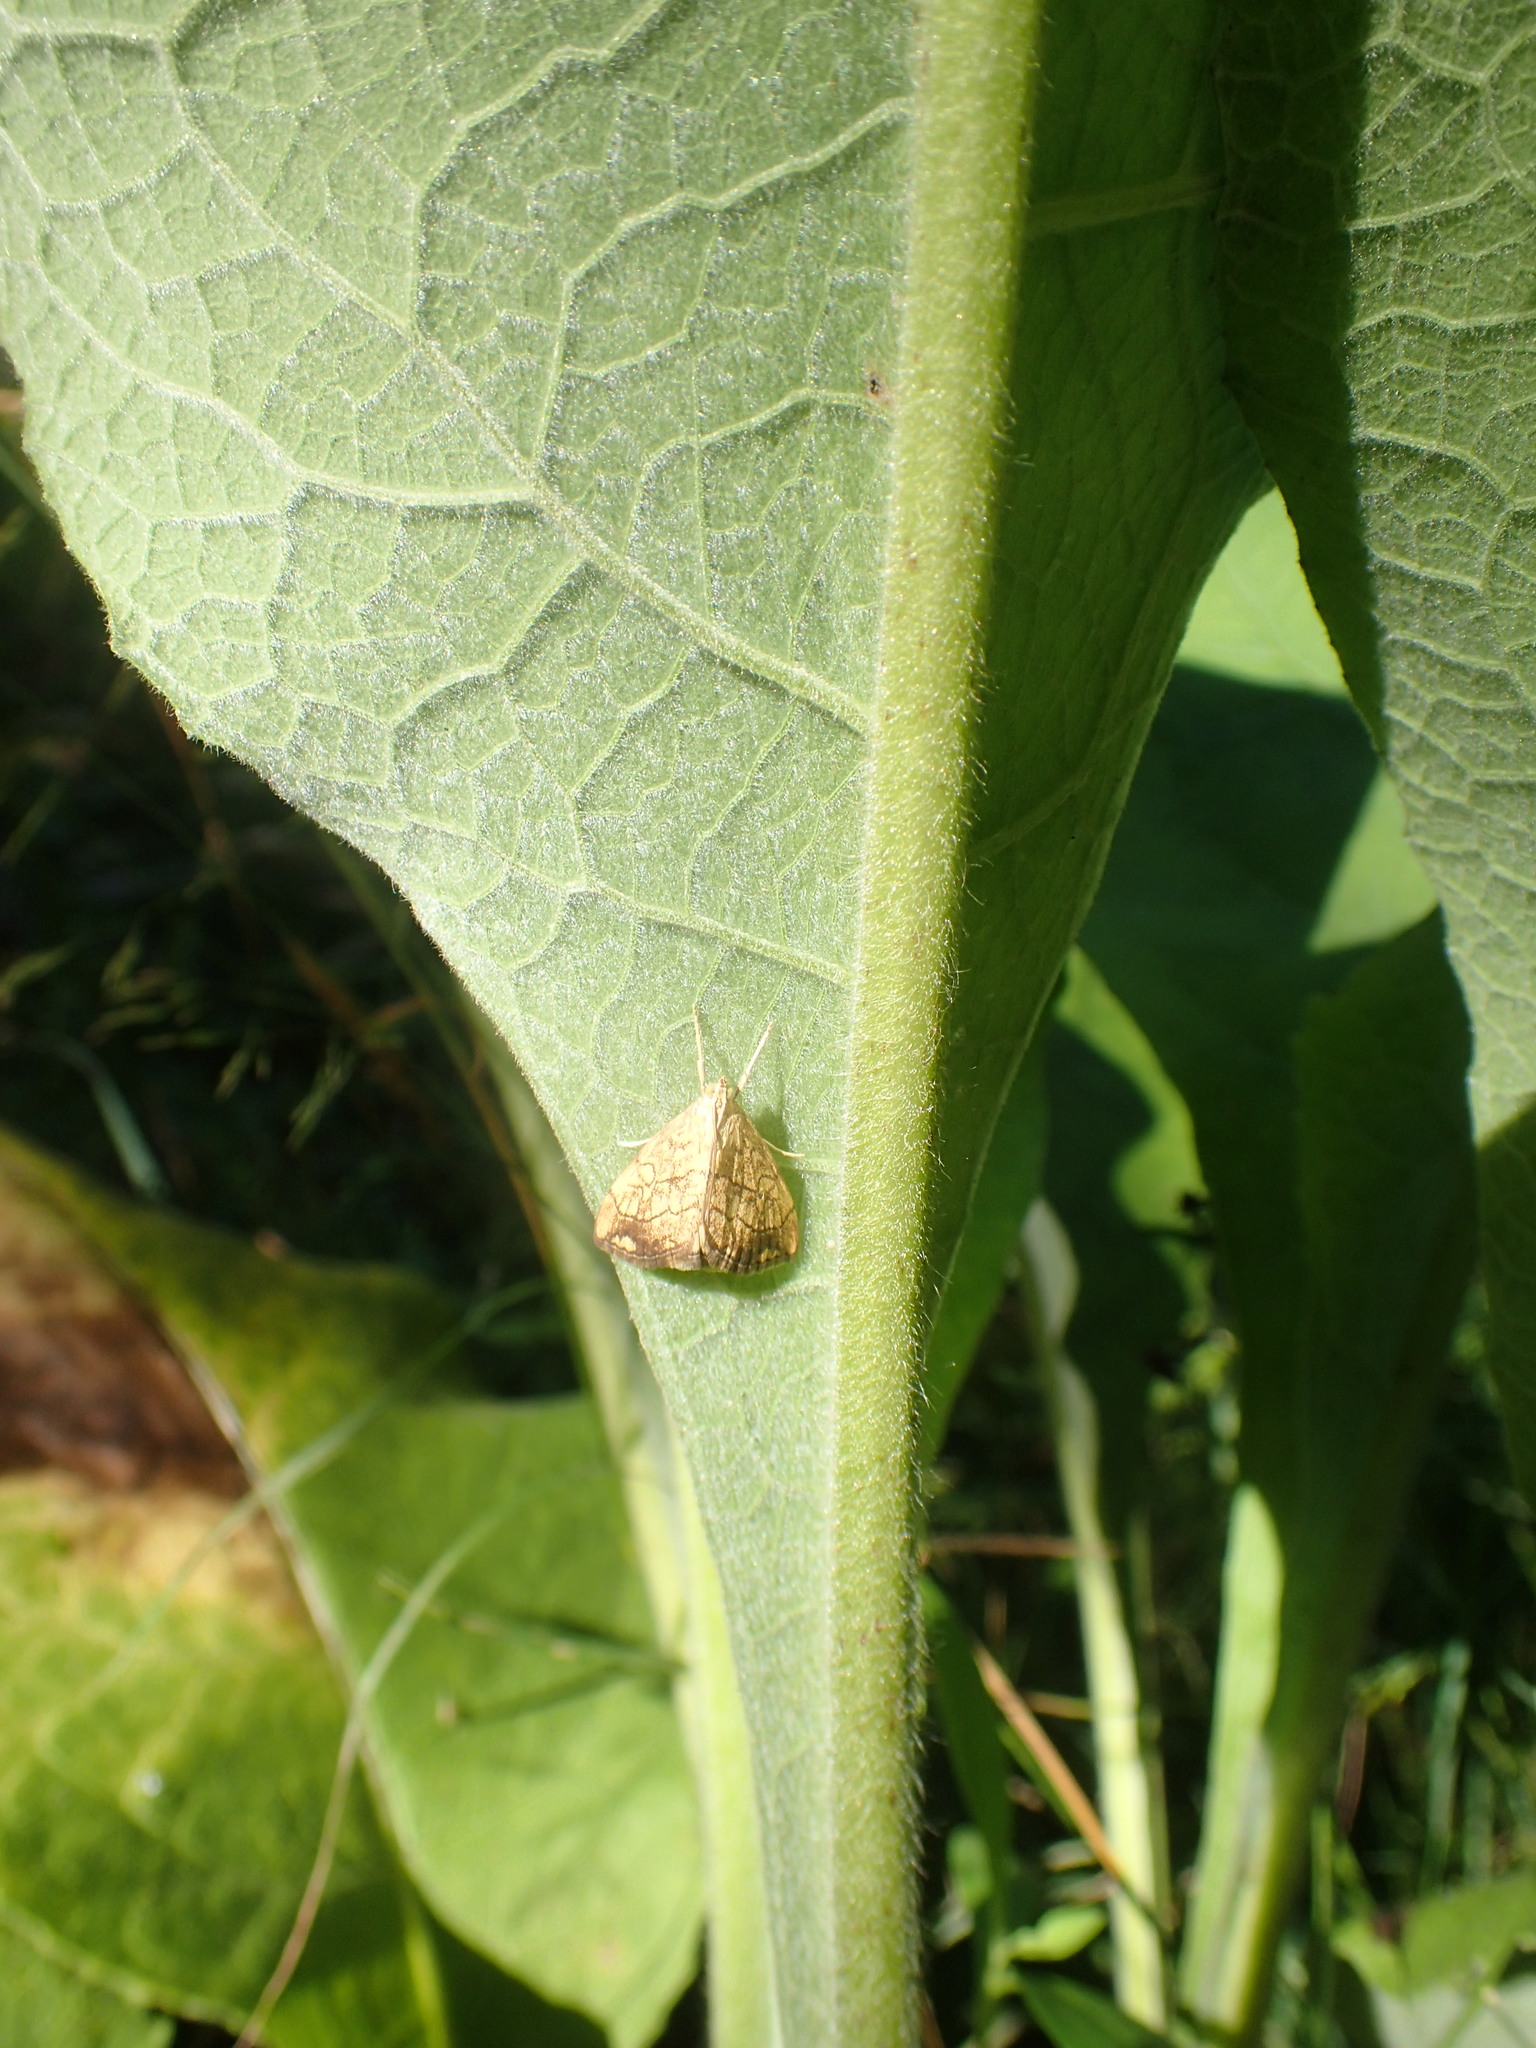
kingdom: Animalia
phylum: Arthropoda
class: Insecta
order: Lepidoptera
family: Crambidae
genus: Evergestis
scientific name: Evergestis pallidata
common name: Chequered pearl
